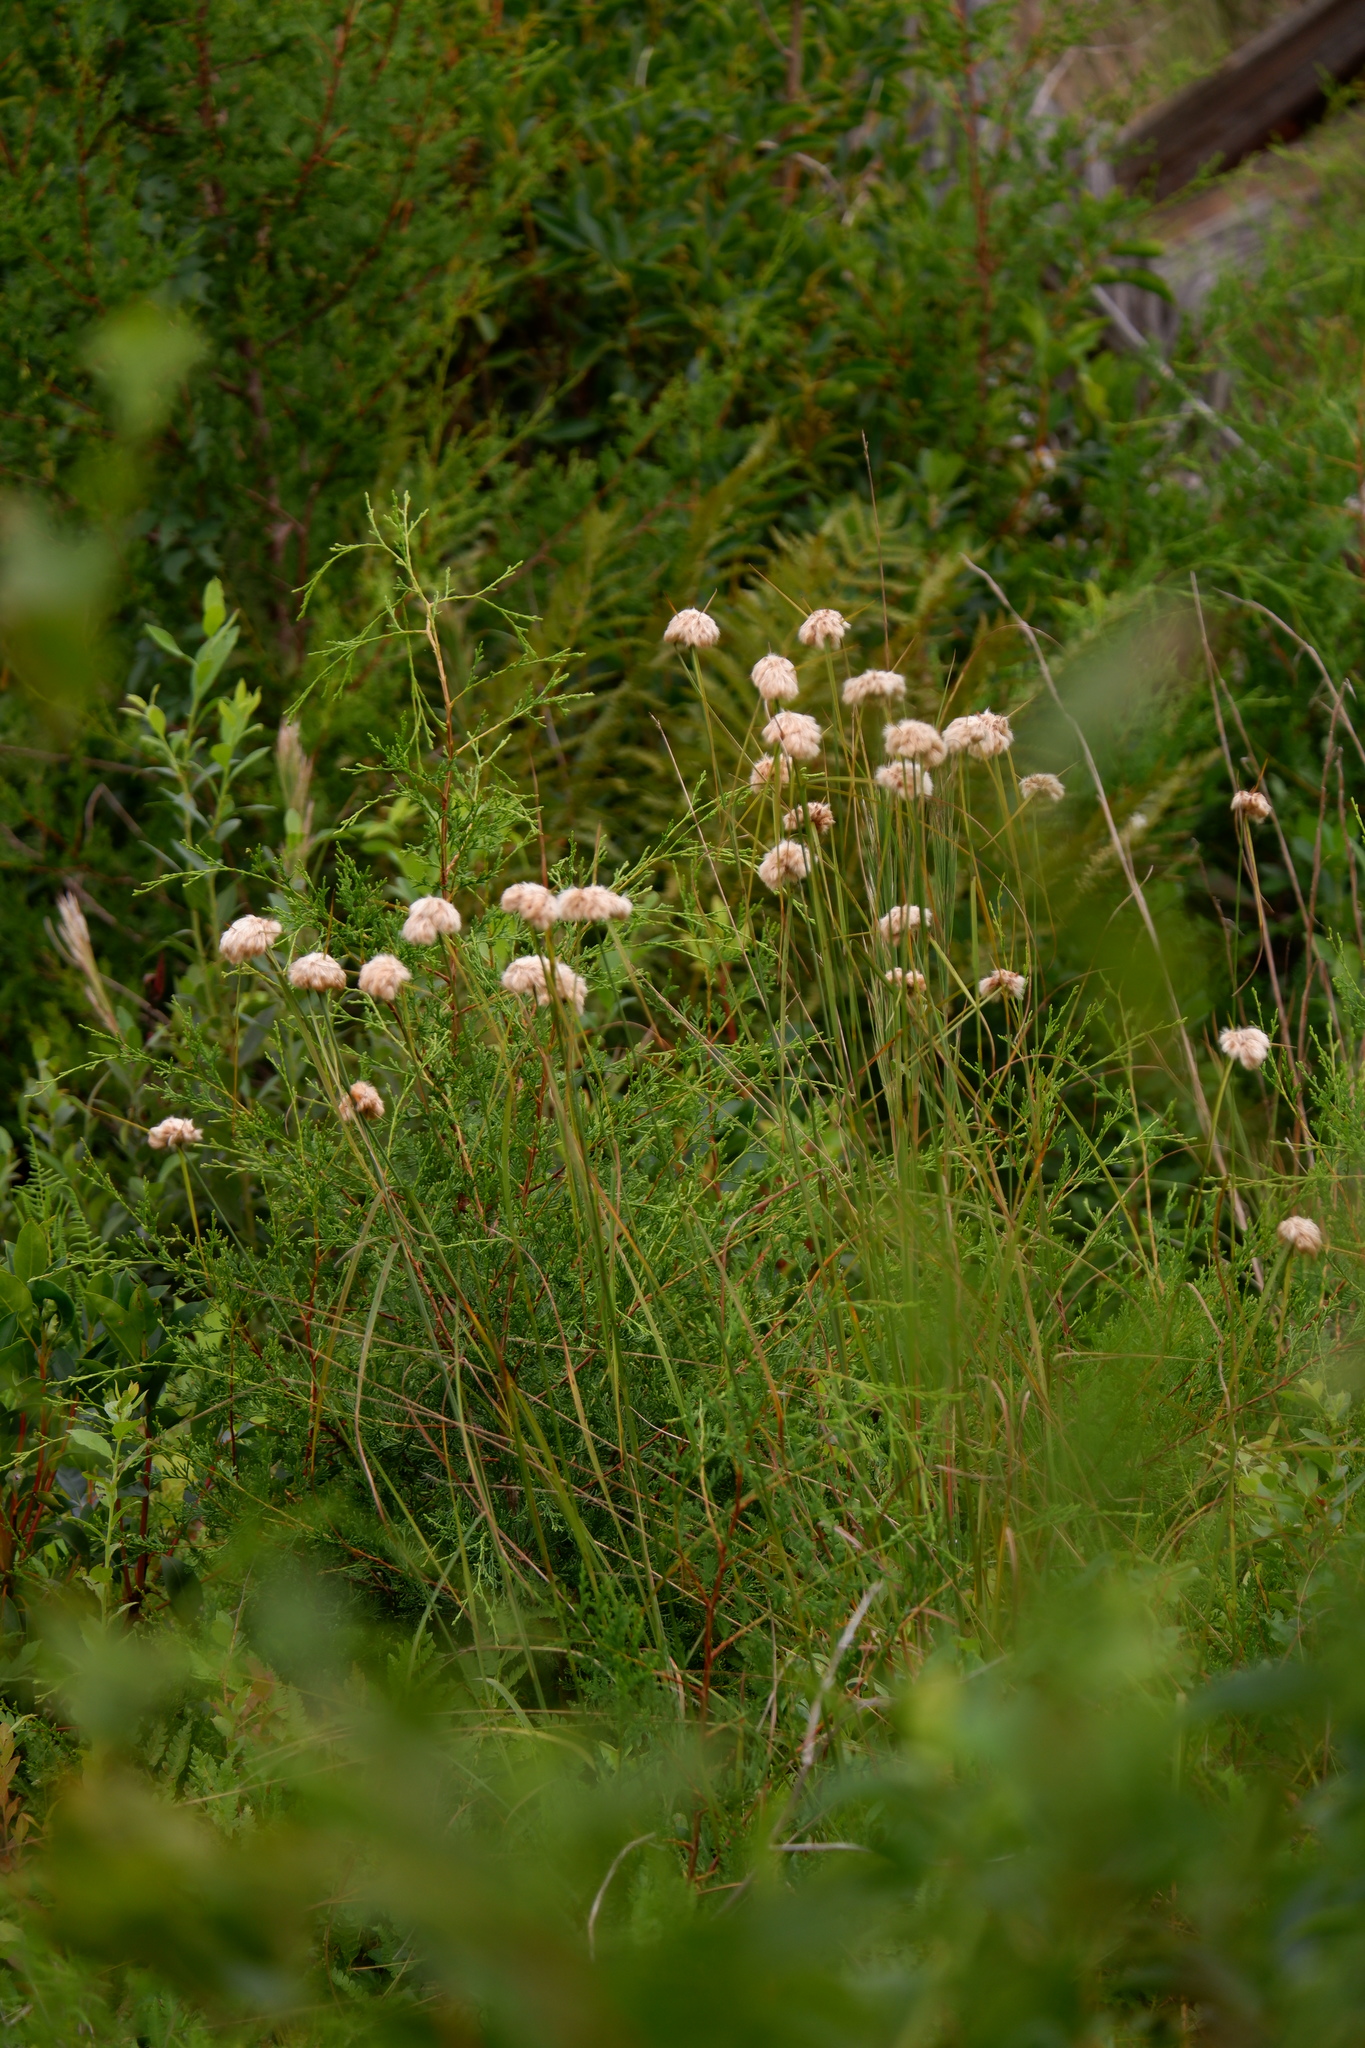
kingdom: Plantae
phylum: Tracheophyta
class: Liliopsida
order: Poales
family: Cyperaceae
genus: Eriophorum
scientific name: Eriophorum virginicum
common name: Tawny cottongrass
